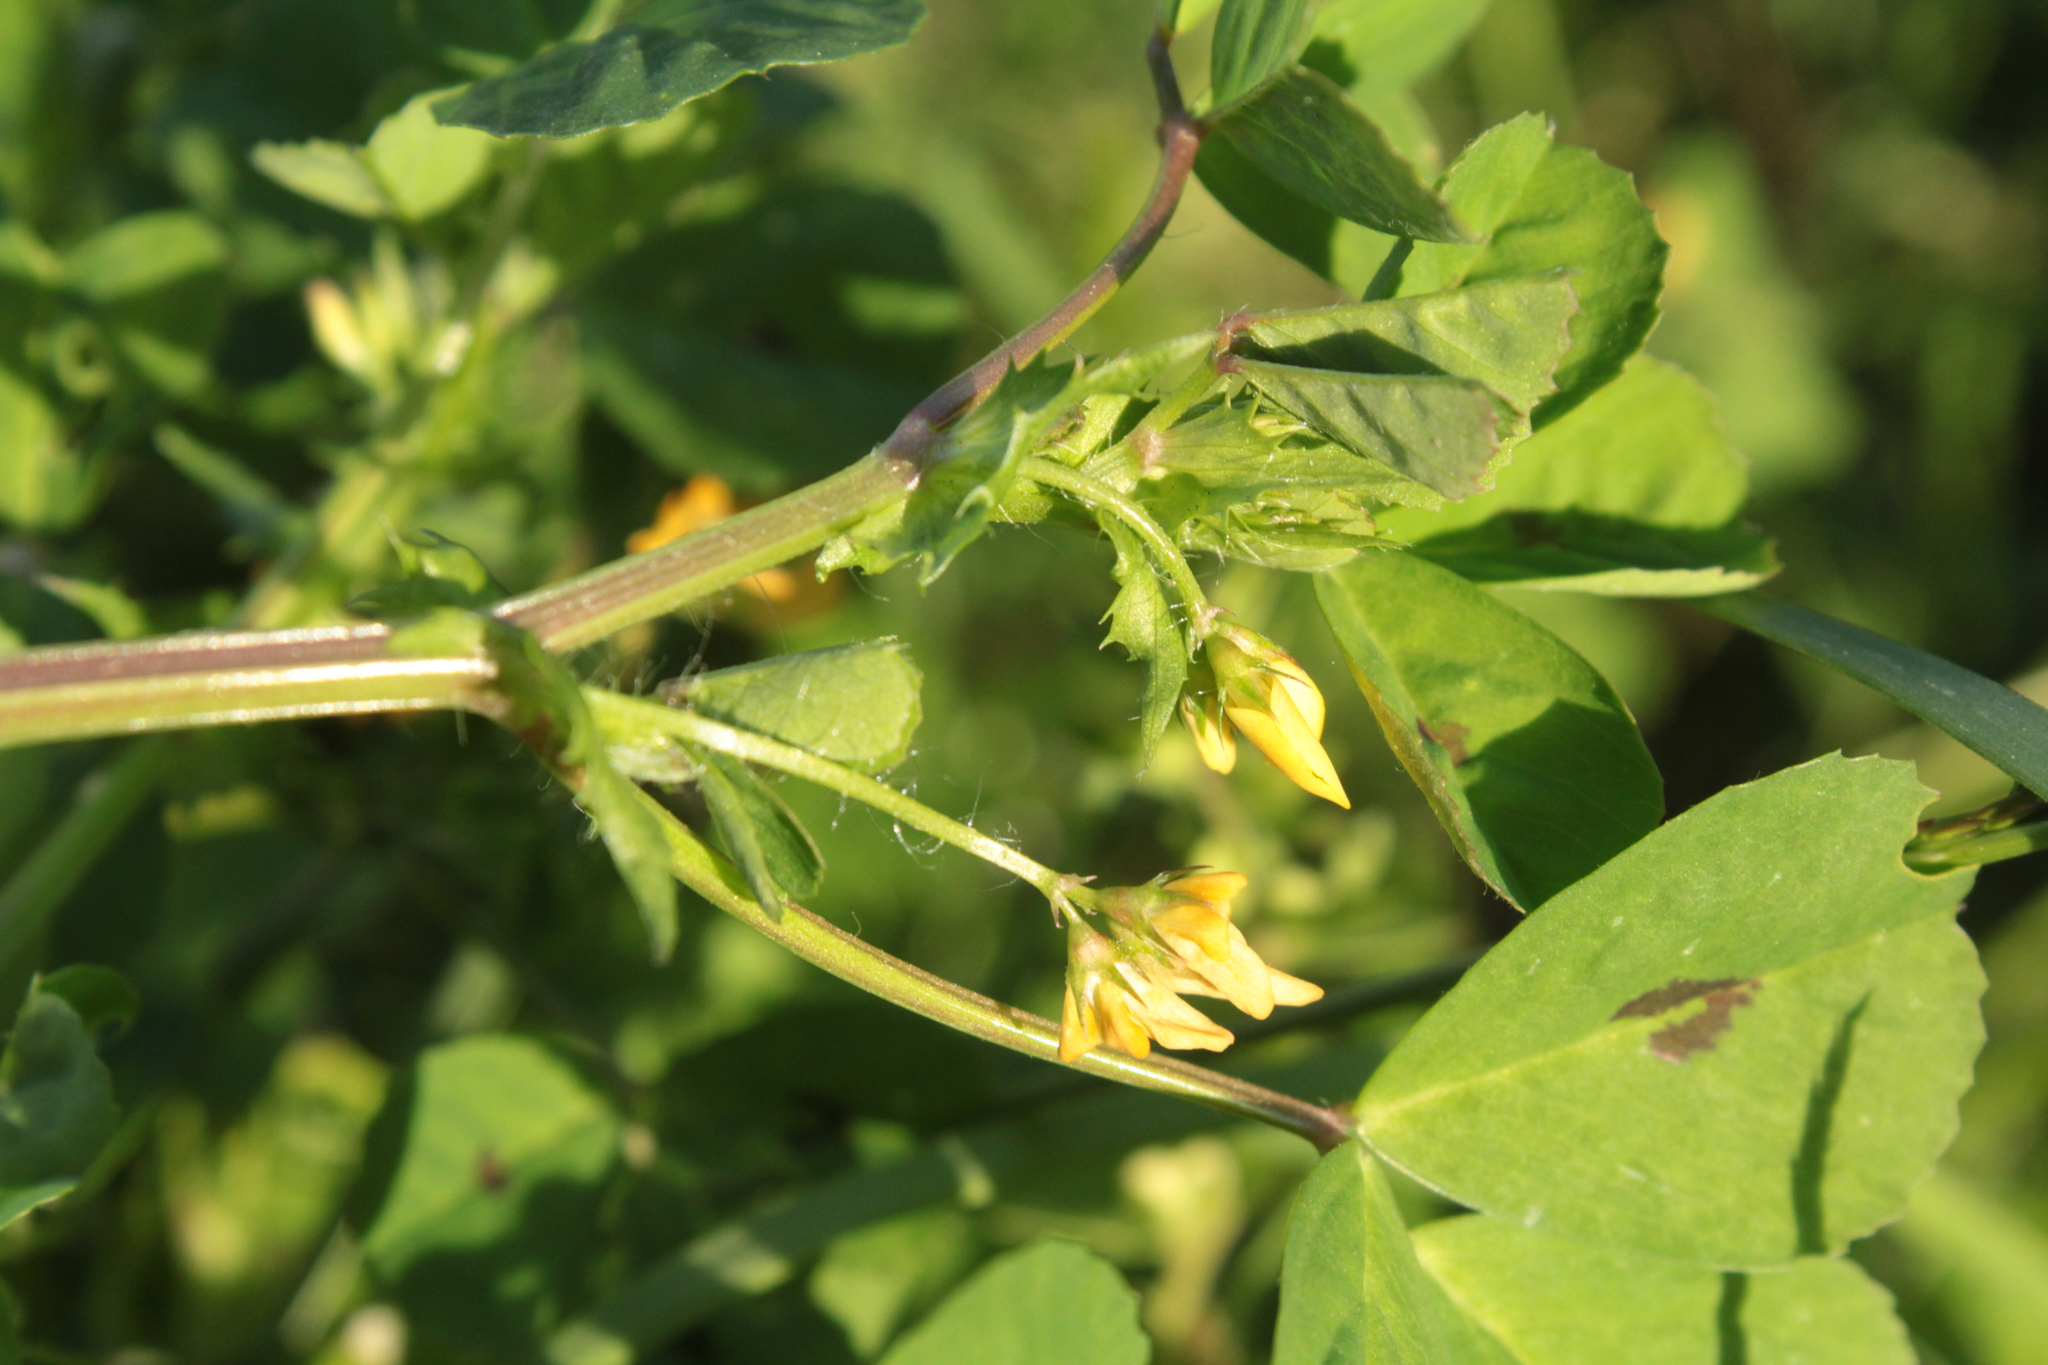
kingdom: Plantae
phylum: Tracheophyta
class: Magnoliopsida
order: Fabales
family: Fabaceae
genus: Medicago
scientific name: Medicago arabica
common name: Spotted medick
